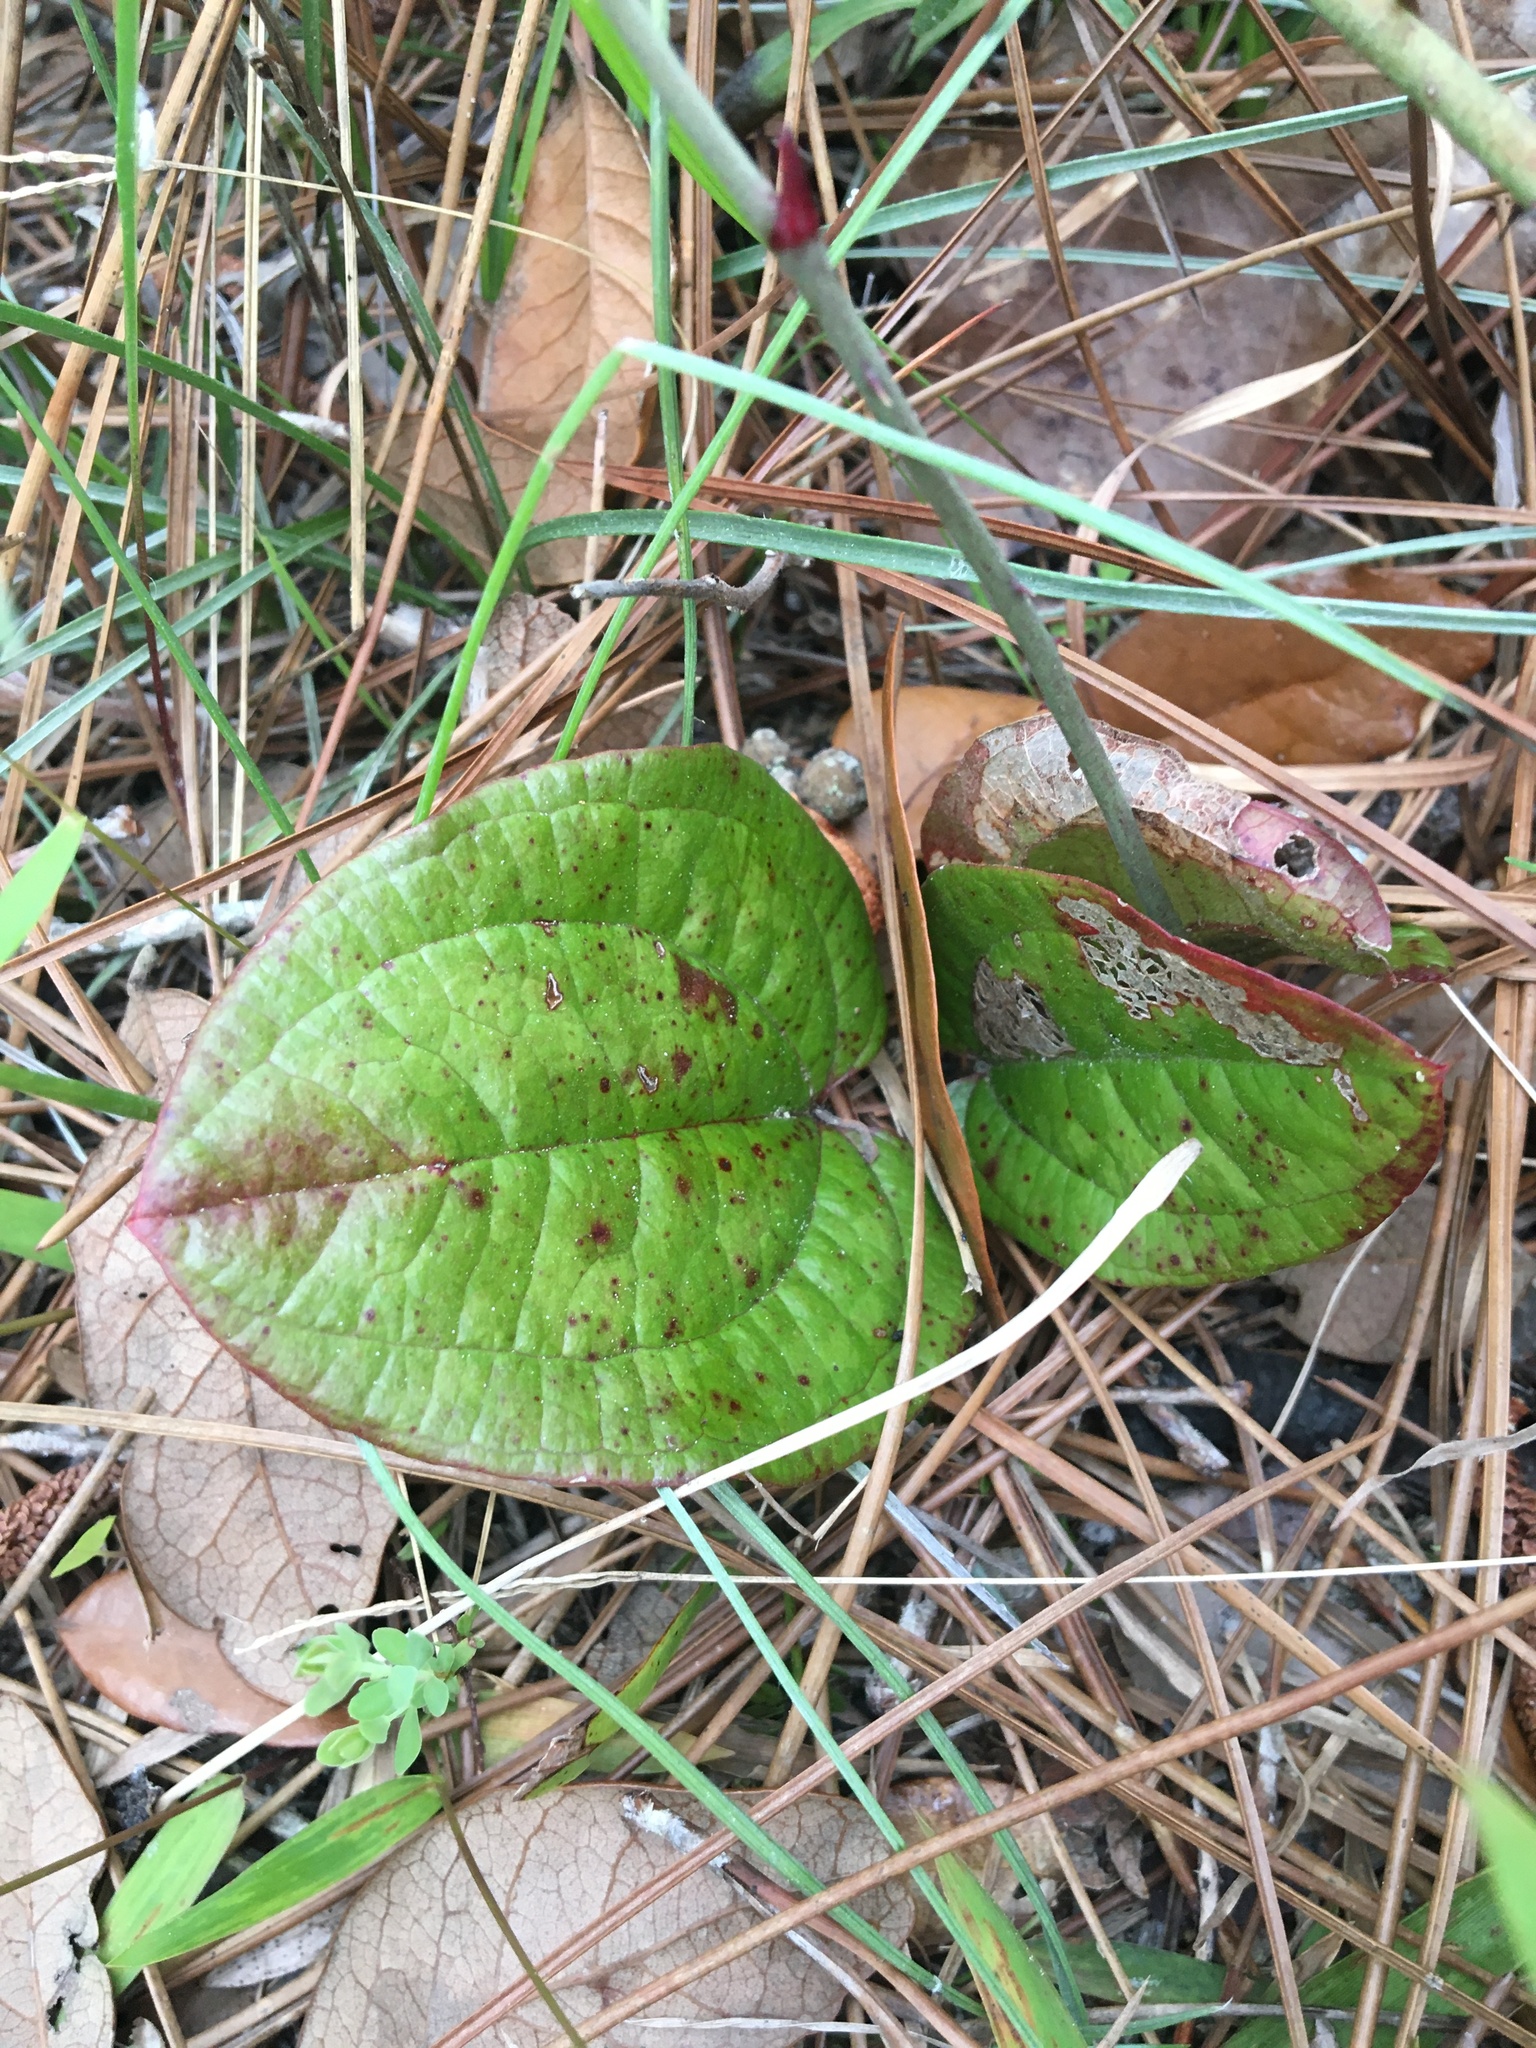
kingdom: Plantae
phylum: Tracheophyta
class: Liliopsida
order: Liliales
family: Smilacaceae
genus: Smilax
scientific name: Smilax pumila
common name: Sarsaparilla-vine
